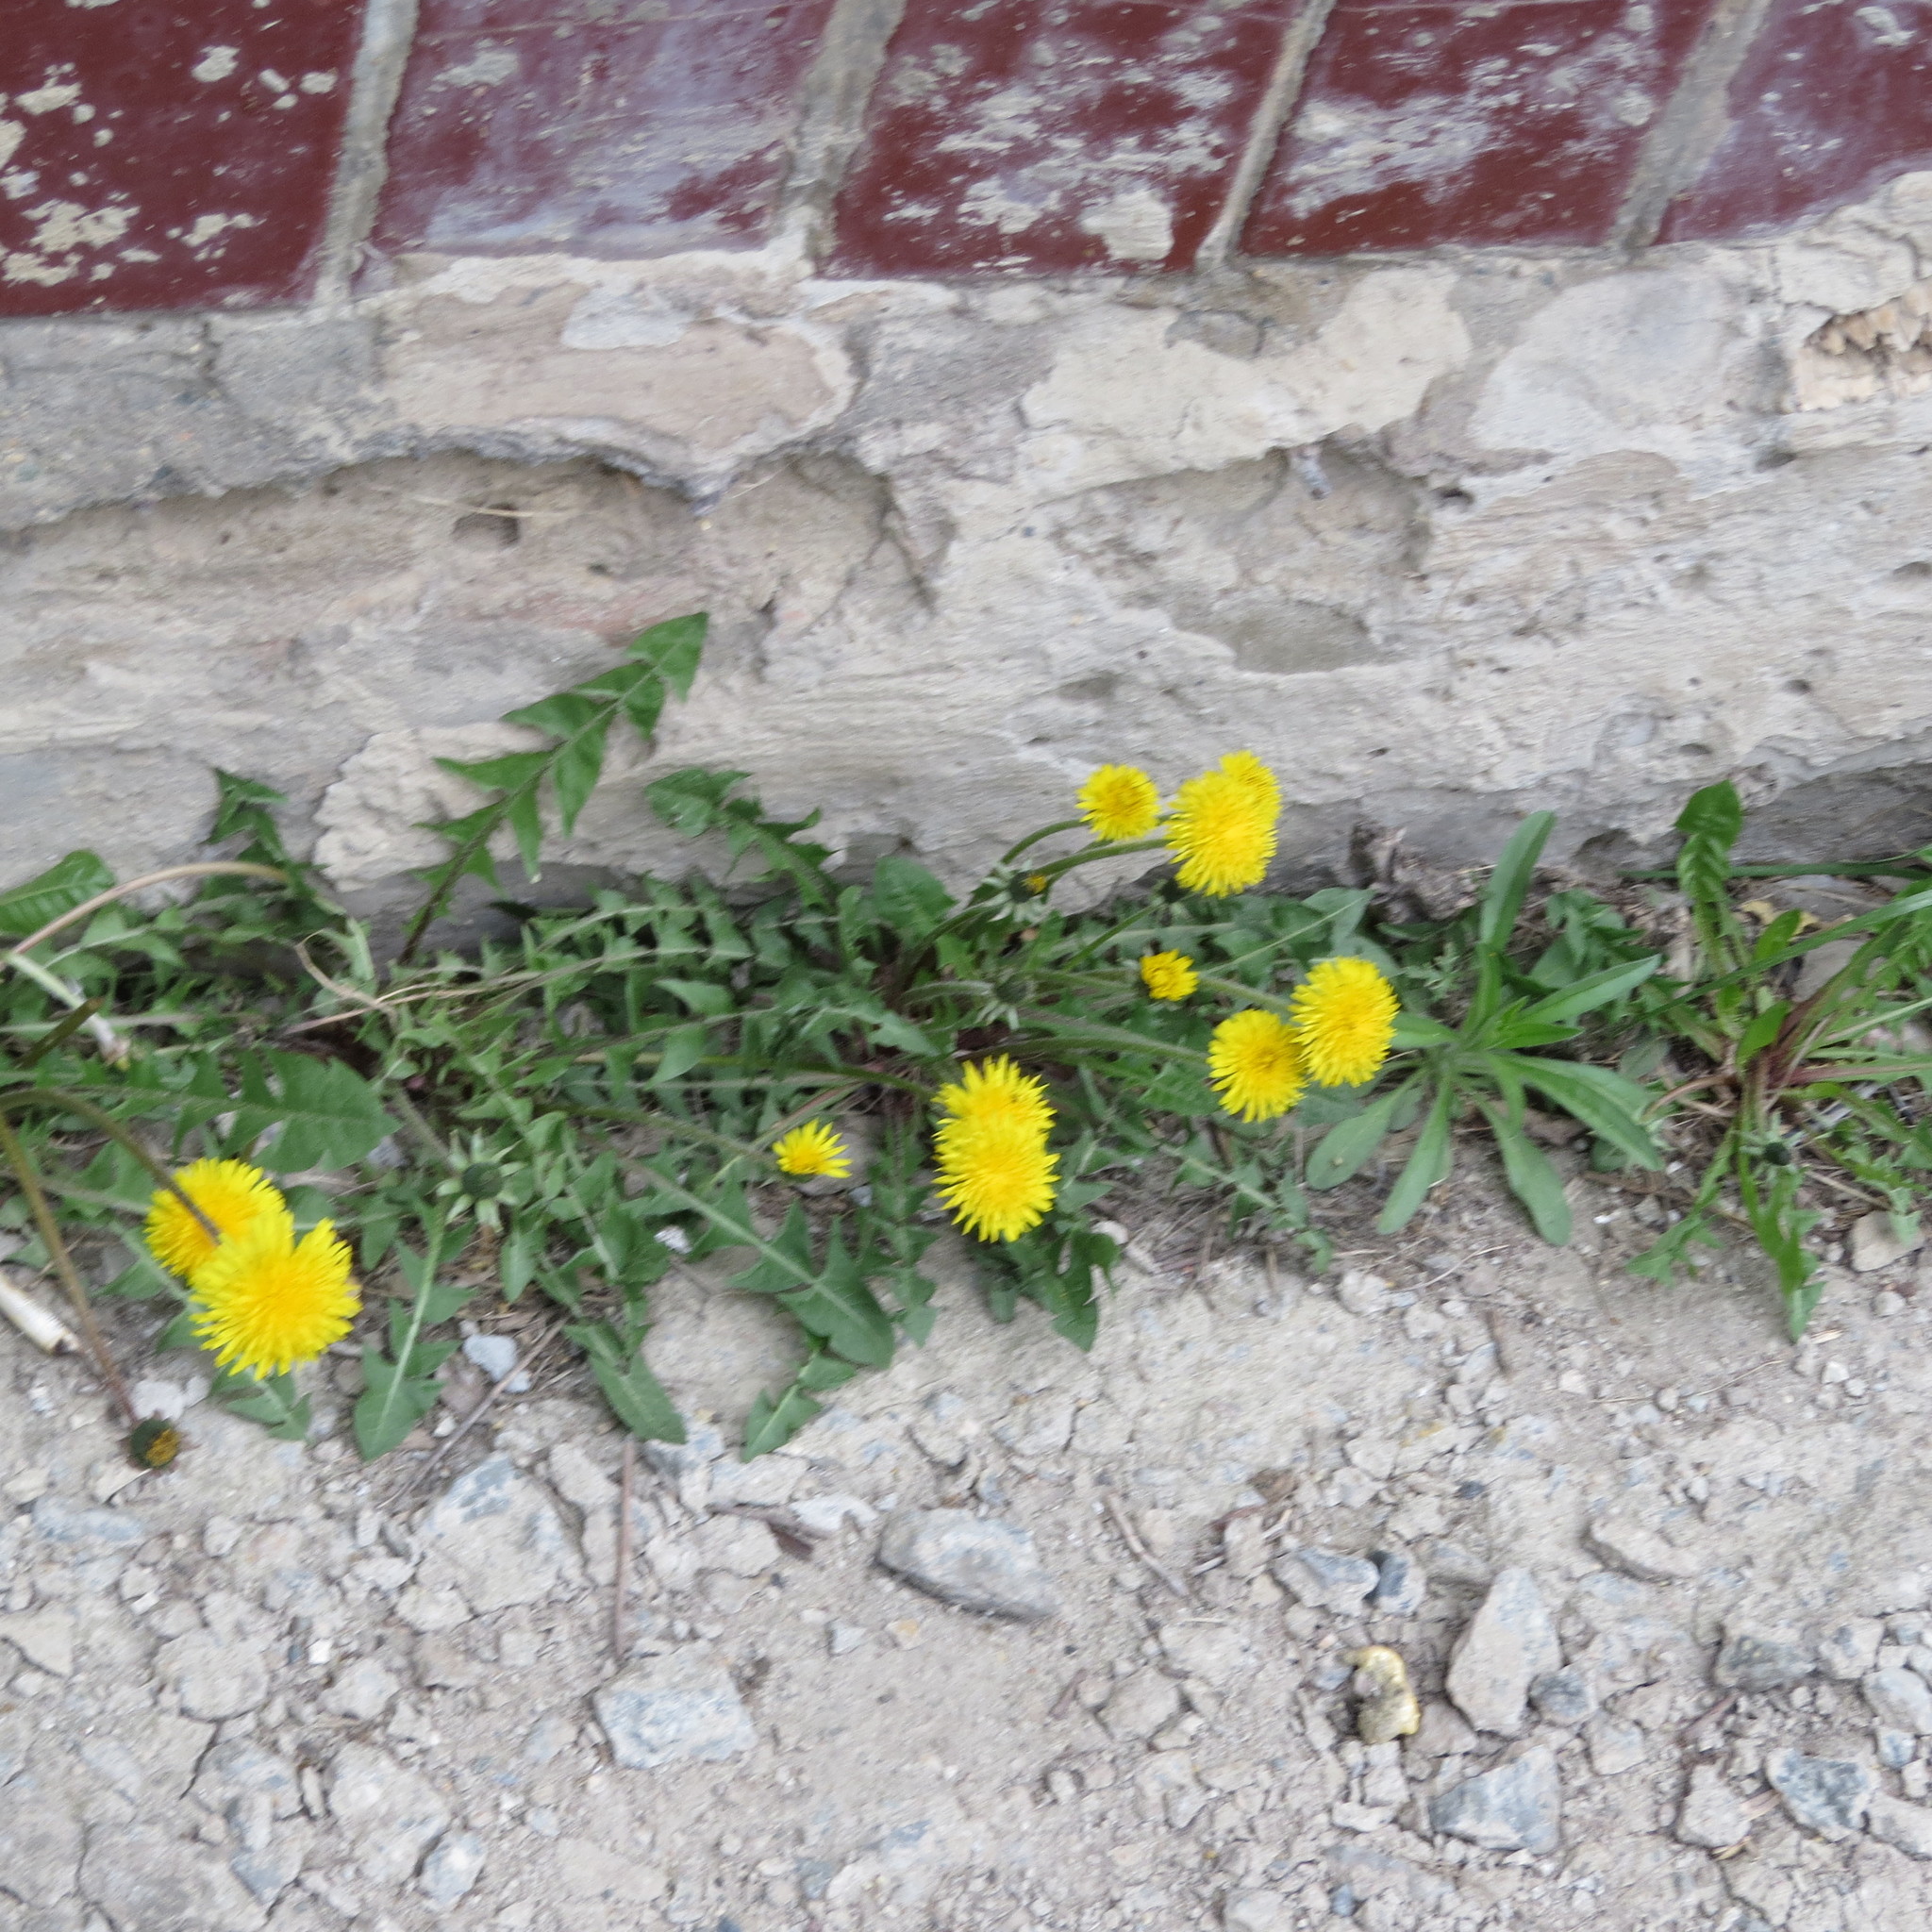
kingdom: Plantae
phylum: Tracheophyta
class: Magnoliopsida
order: Asterales
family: Asteraceae
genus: Taraxacum
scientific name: Taraxacum officinale
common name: Common dandelion
